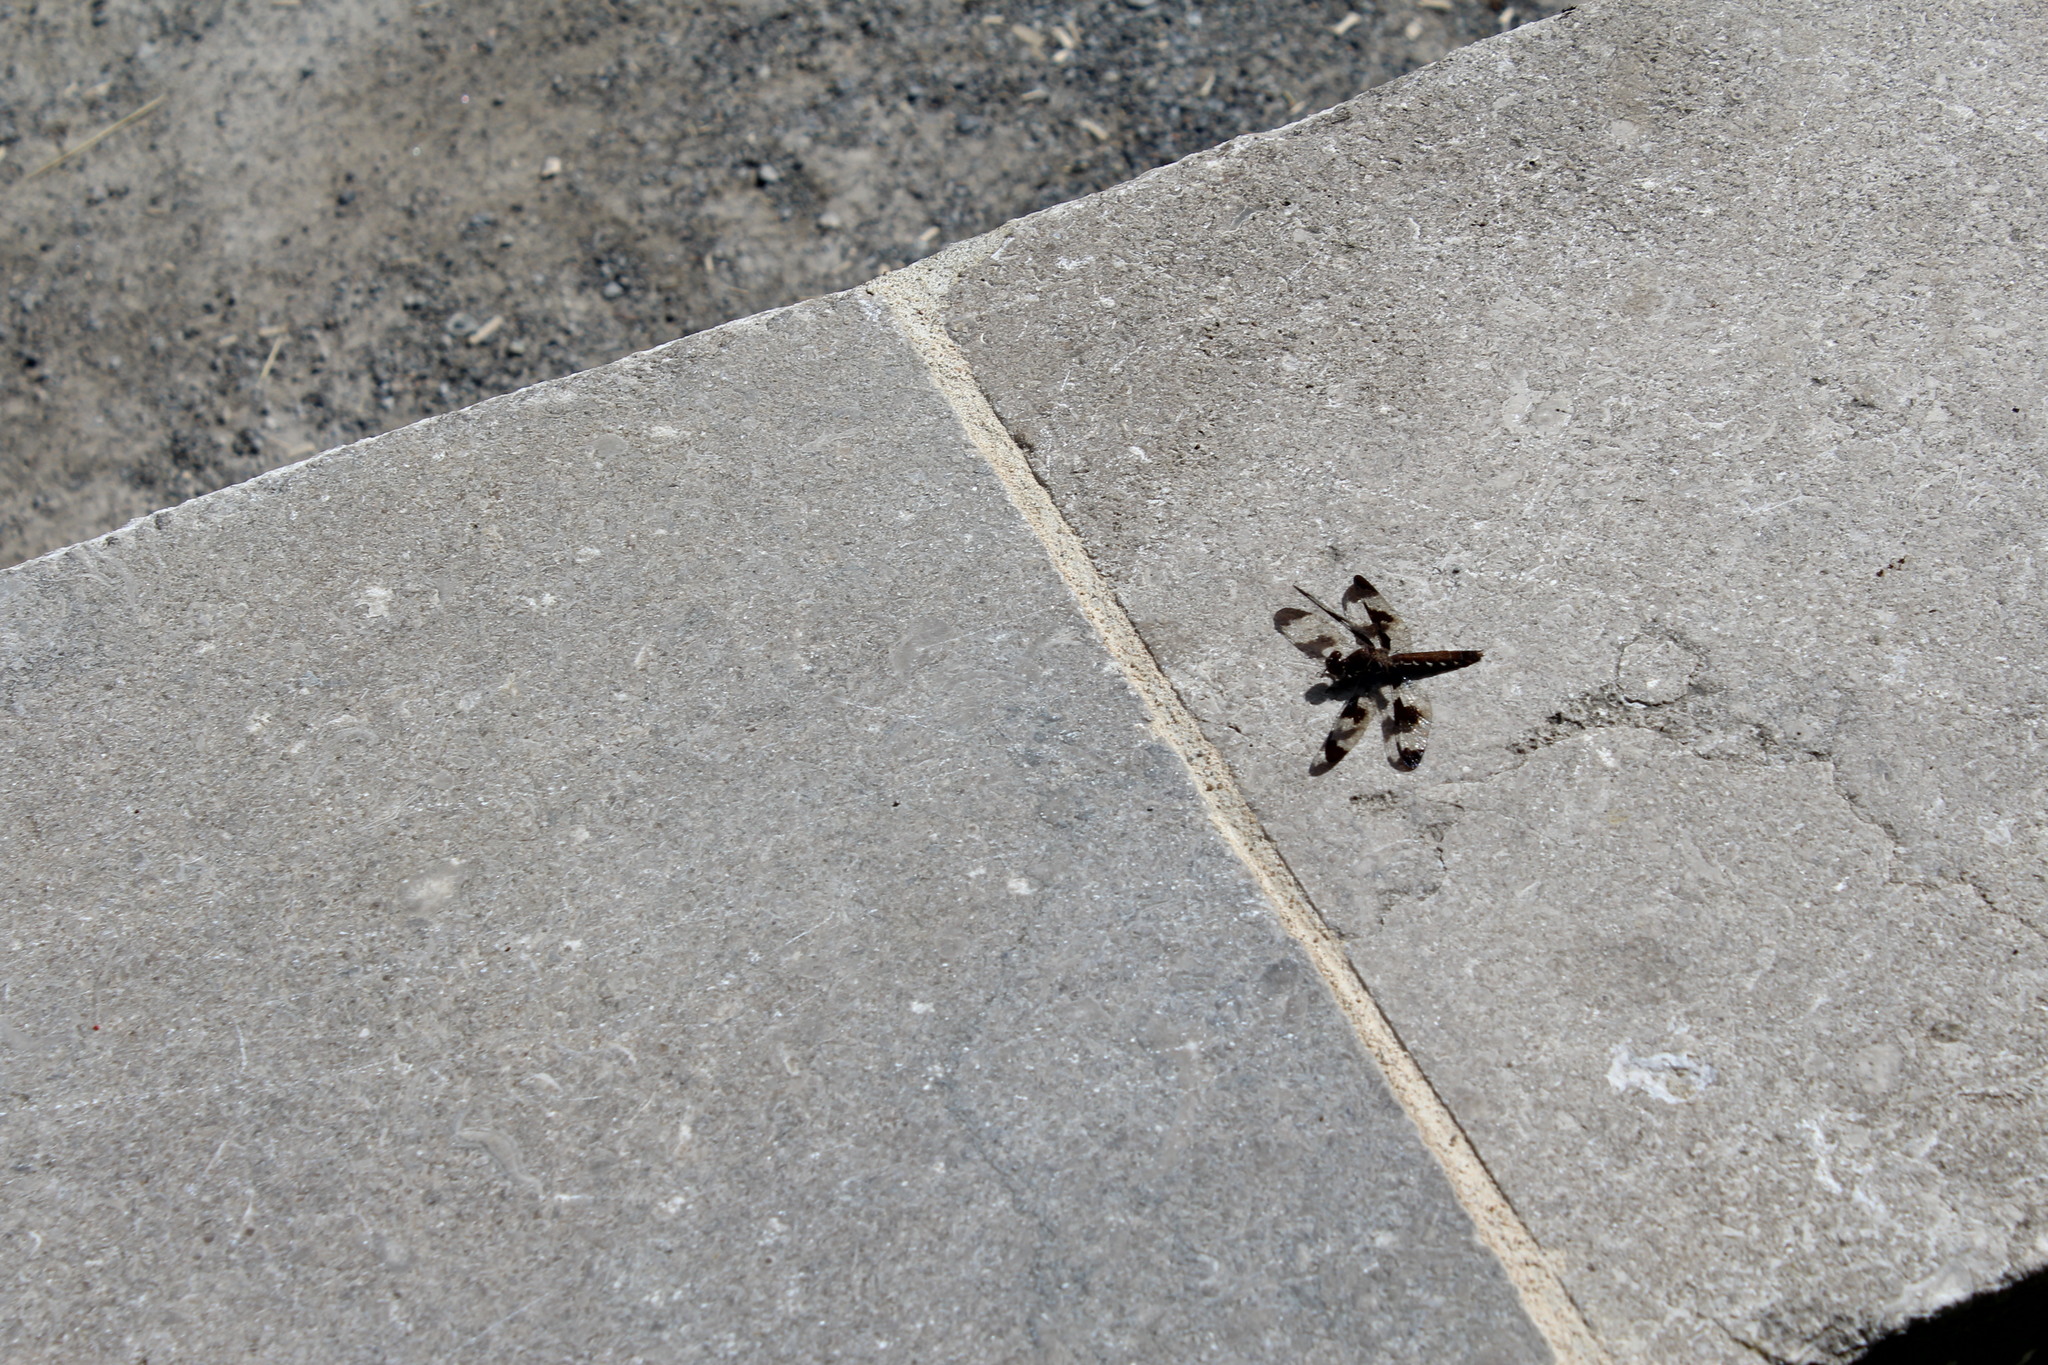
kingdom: Animalia
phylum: Arthropoda
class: Insecta
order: Odonata
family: Libellulidae
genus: Plathemis
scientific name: Plathemis lydia
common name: Common whitetail
